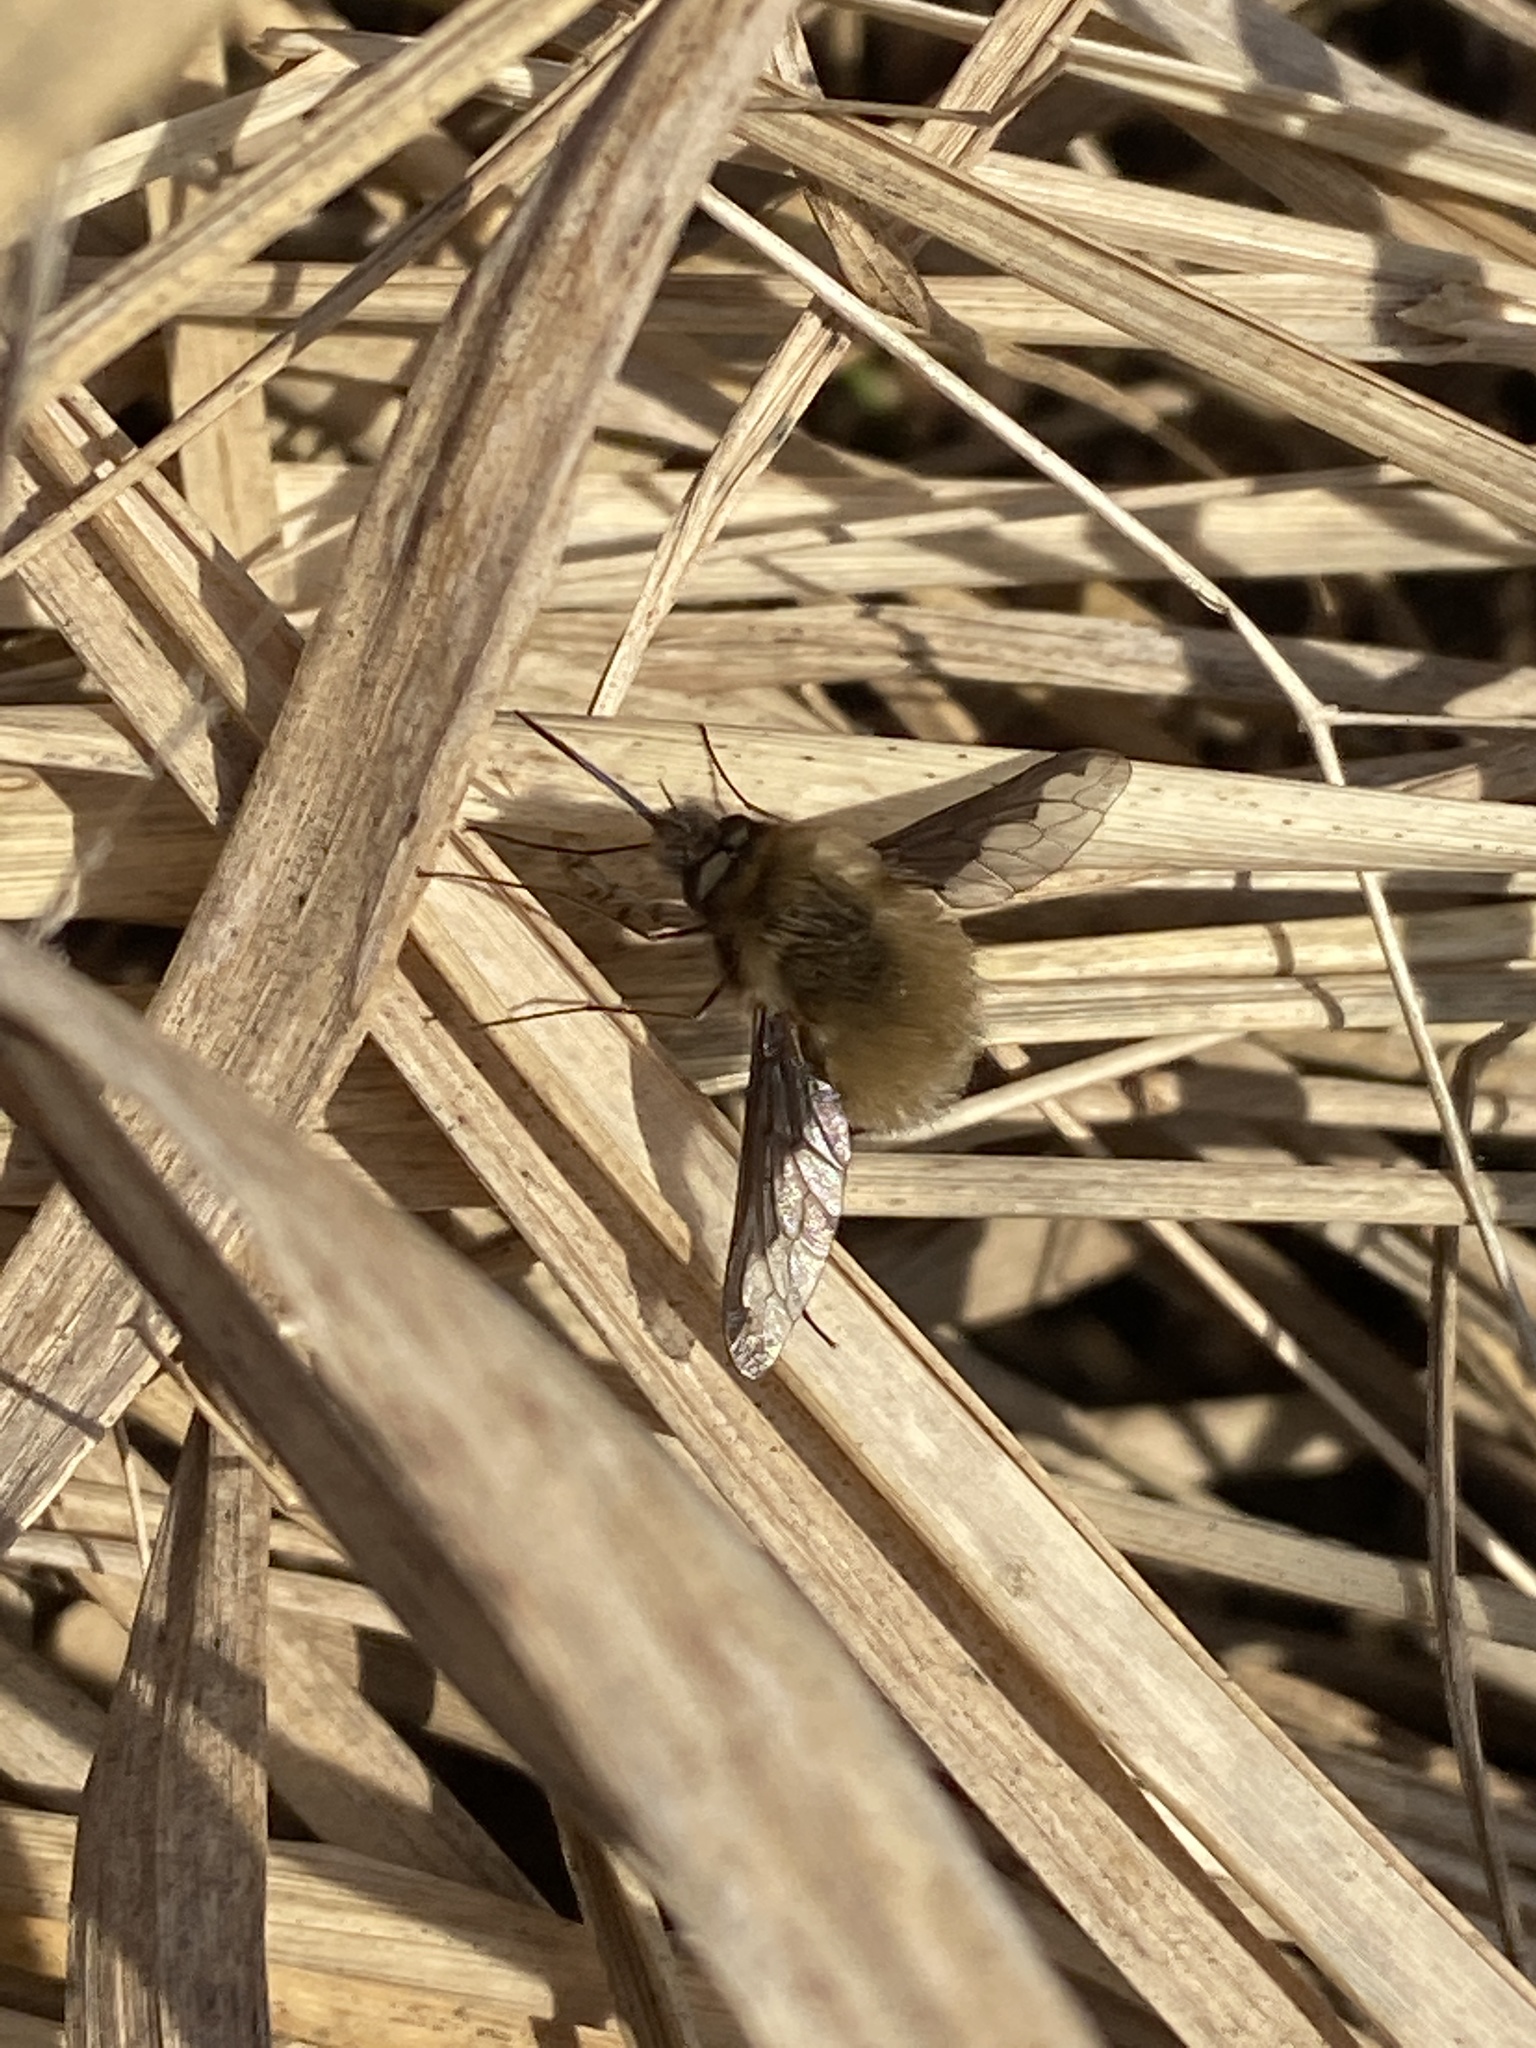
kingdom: Animalia
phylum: Arthropoda
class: Insecta
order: Diptera
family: Bombyliidae
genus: Bombylius
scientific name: Bombylius major
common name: Bee fly
